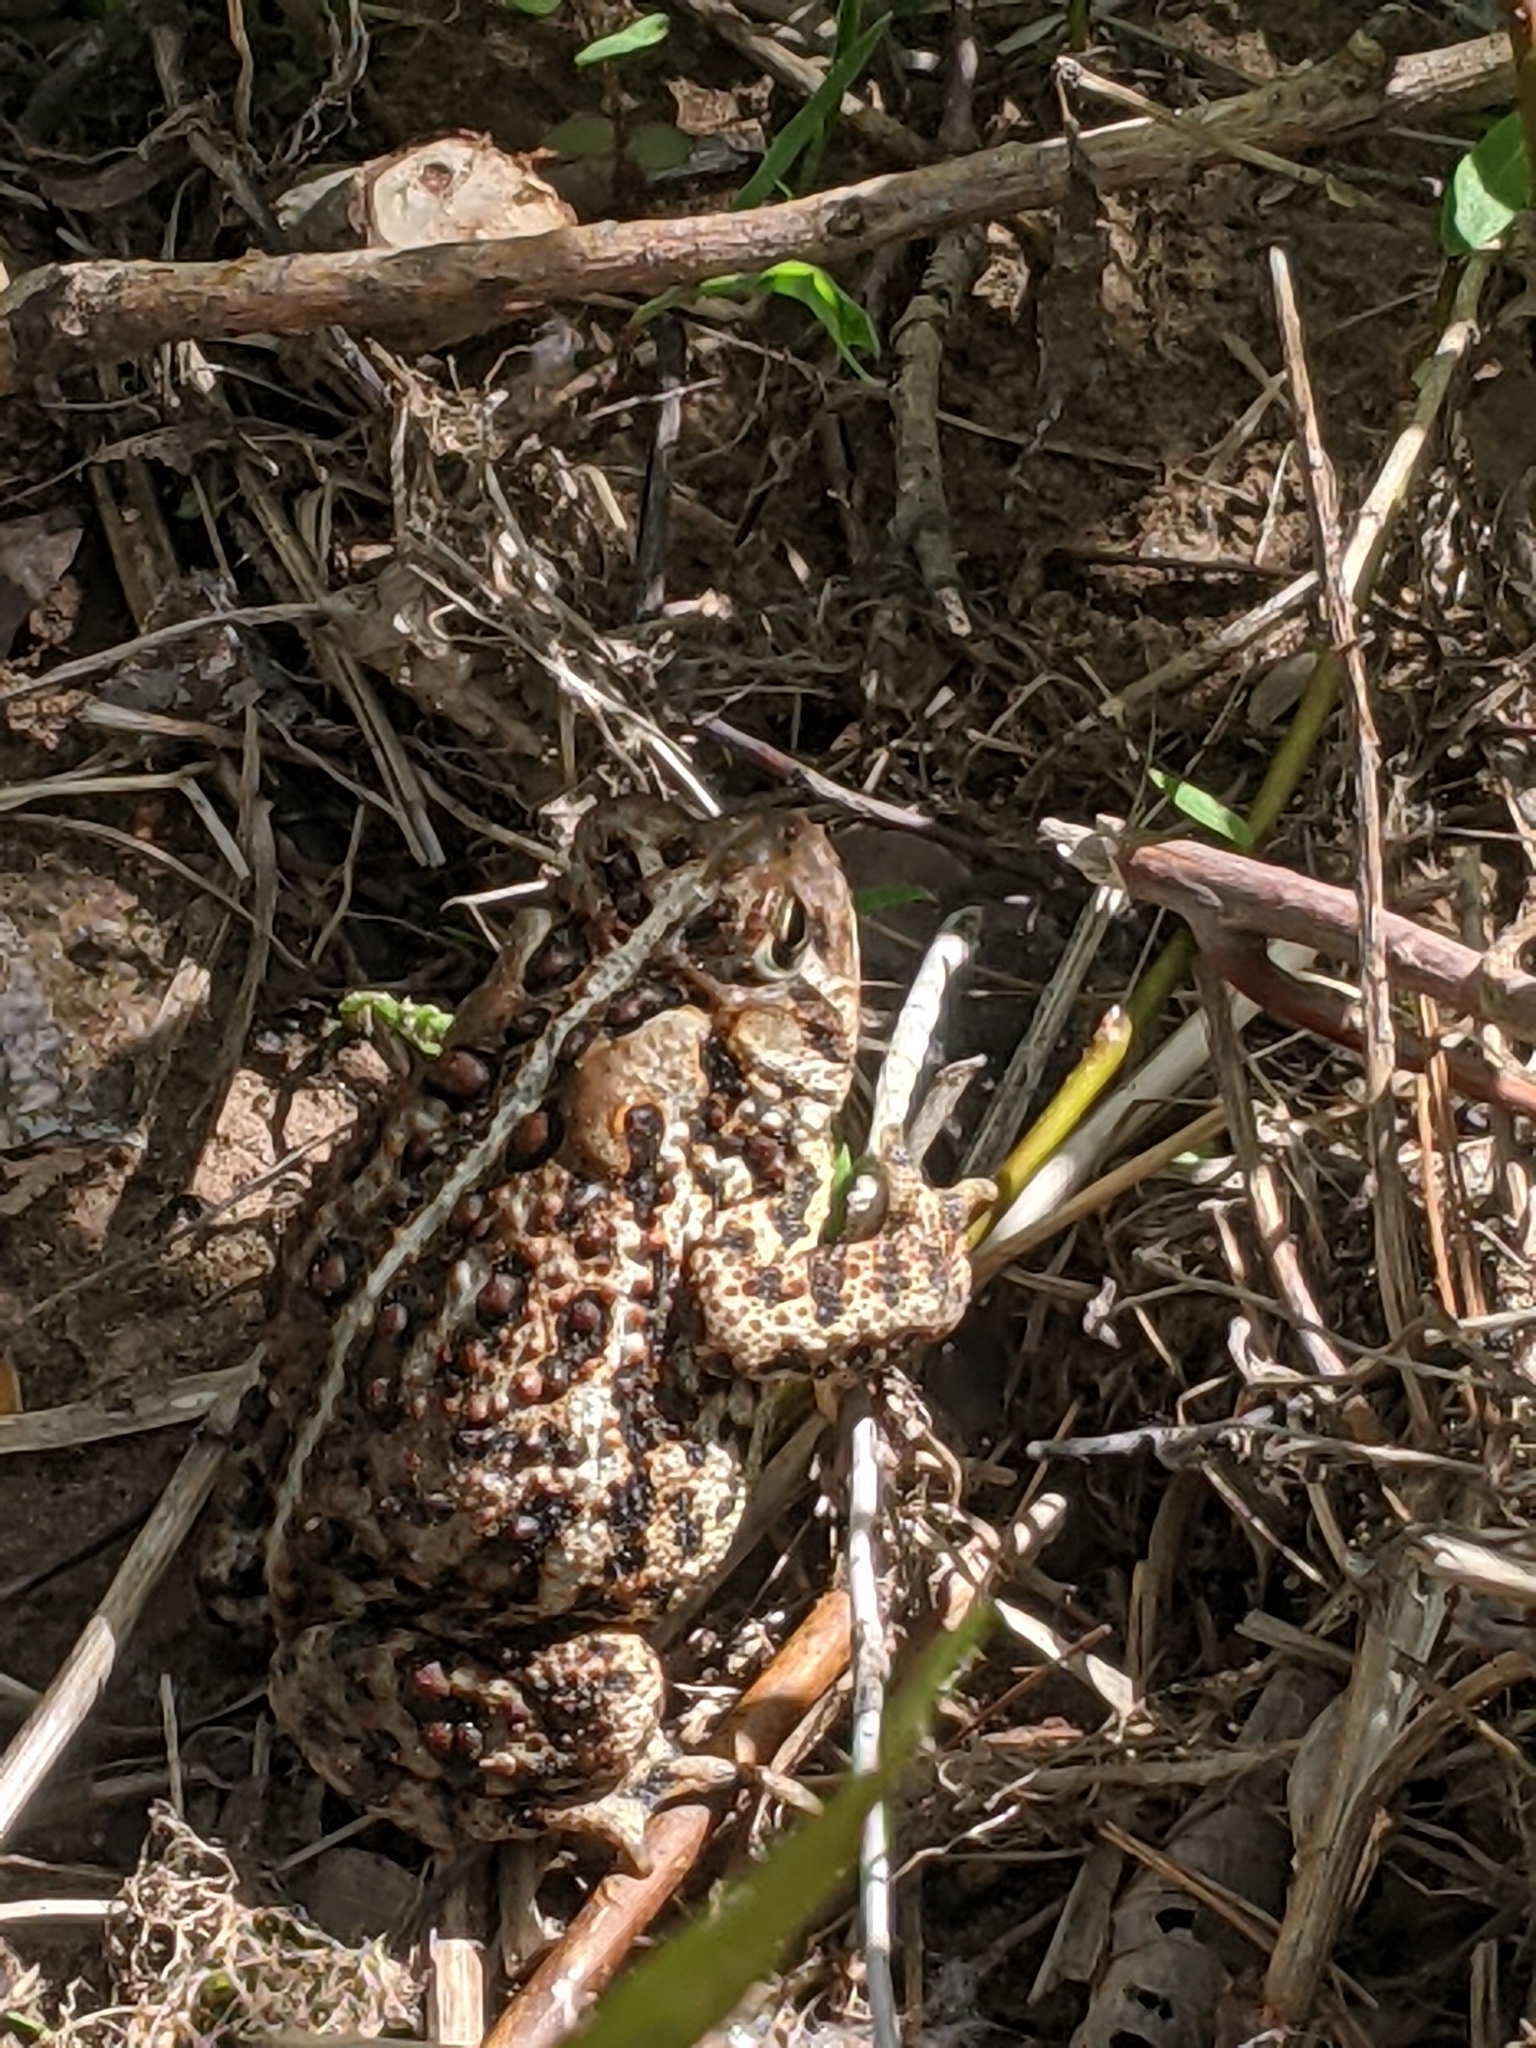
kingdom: Animalia
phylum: Chordata
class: Amphibia
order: Anura
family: Bufonidae
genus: Anaxyrus
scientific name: Anaxyrus americanus
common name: American toad
